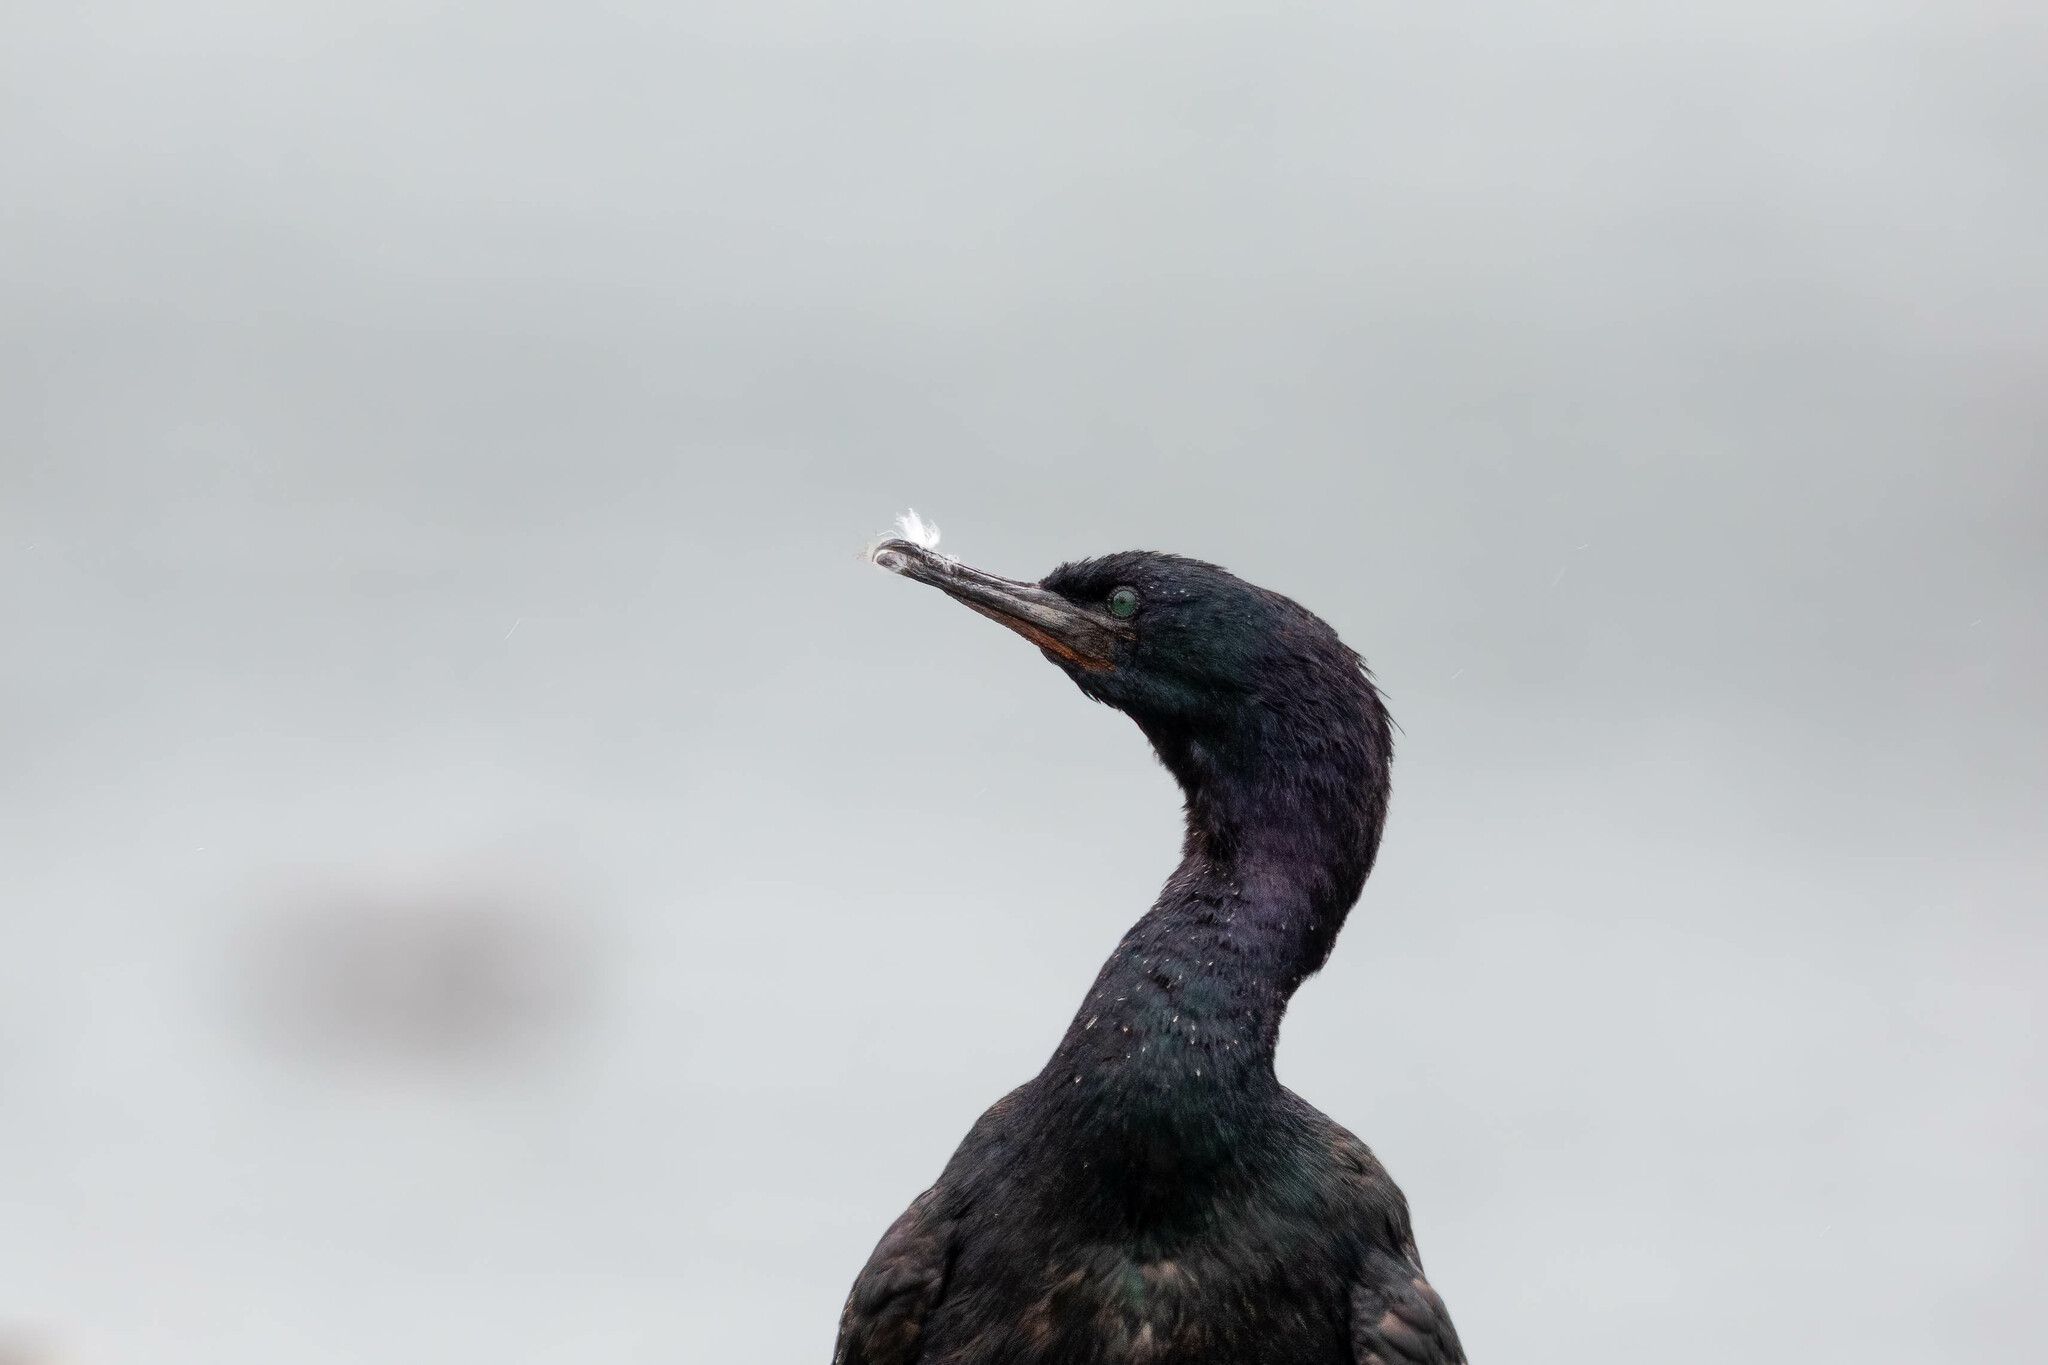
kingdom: Animalia
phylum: Chordata
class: Aves
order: Suliformes
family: Phalacrocoracidae
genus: Phalacrocorax
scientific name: Phalacrocorax pelagicus
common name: Pelagic cormorant
